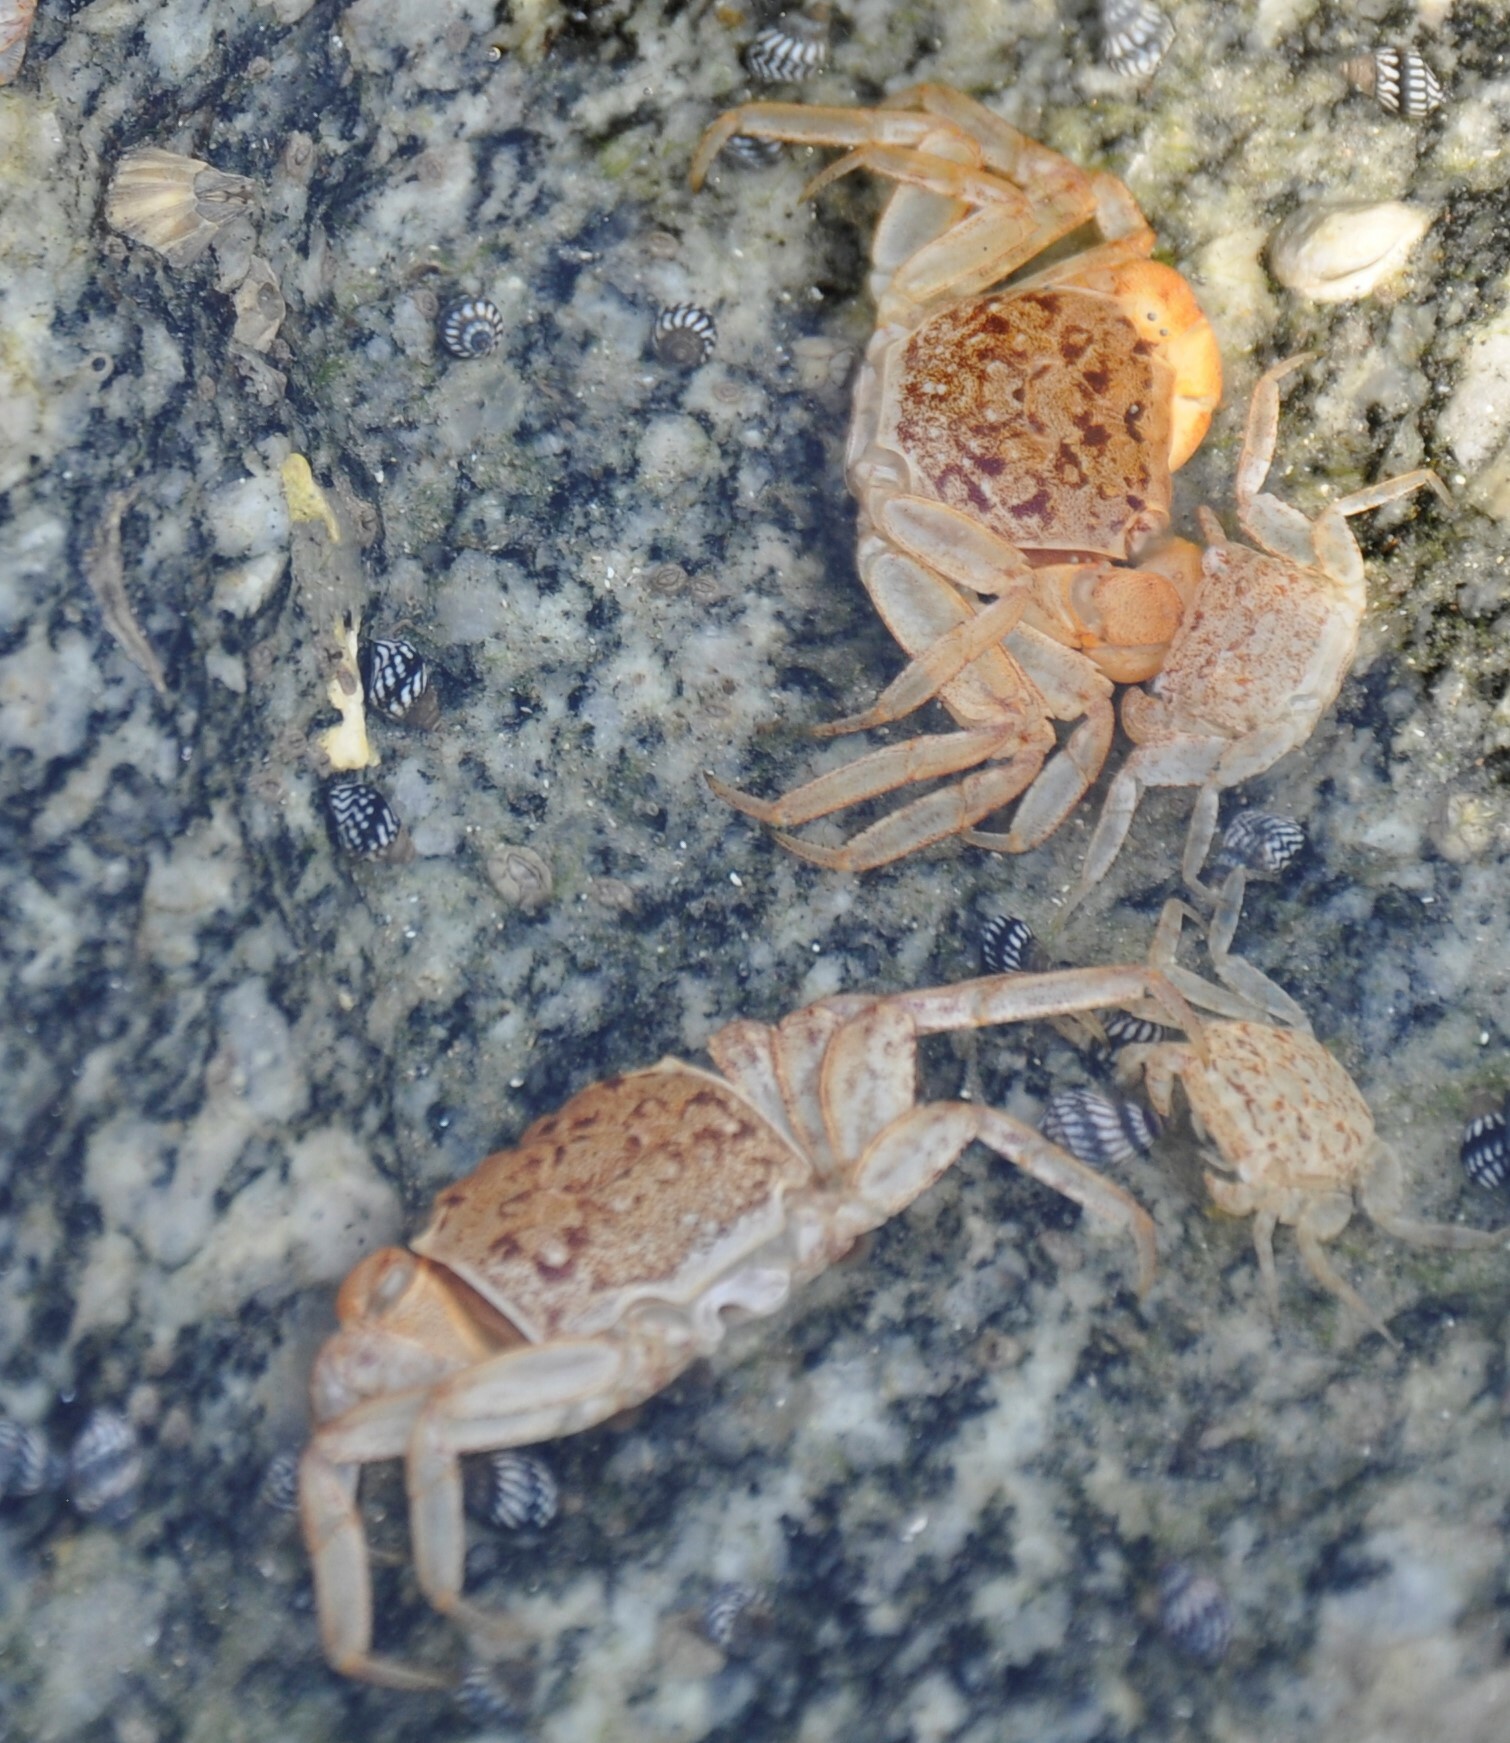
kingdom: Animalia
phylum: Arthropoda
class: Malacostraca
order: Decapoda
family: Sesarmidae
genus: Armases
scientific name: Armases cinereum
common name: Squareback marsh crab
